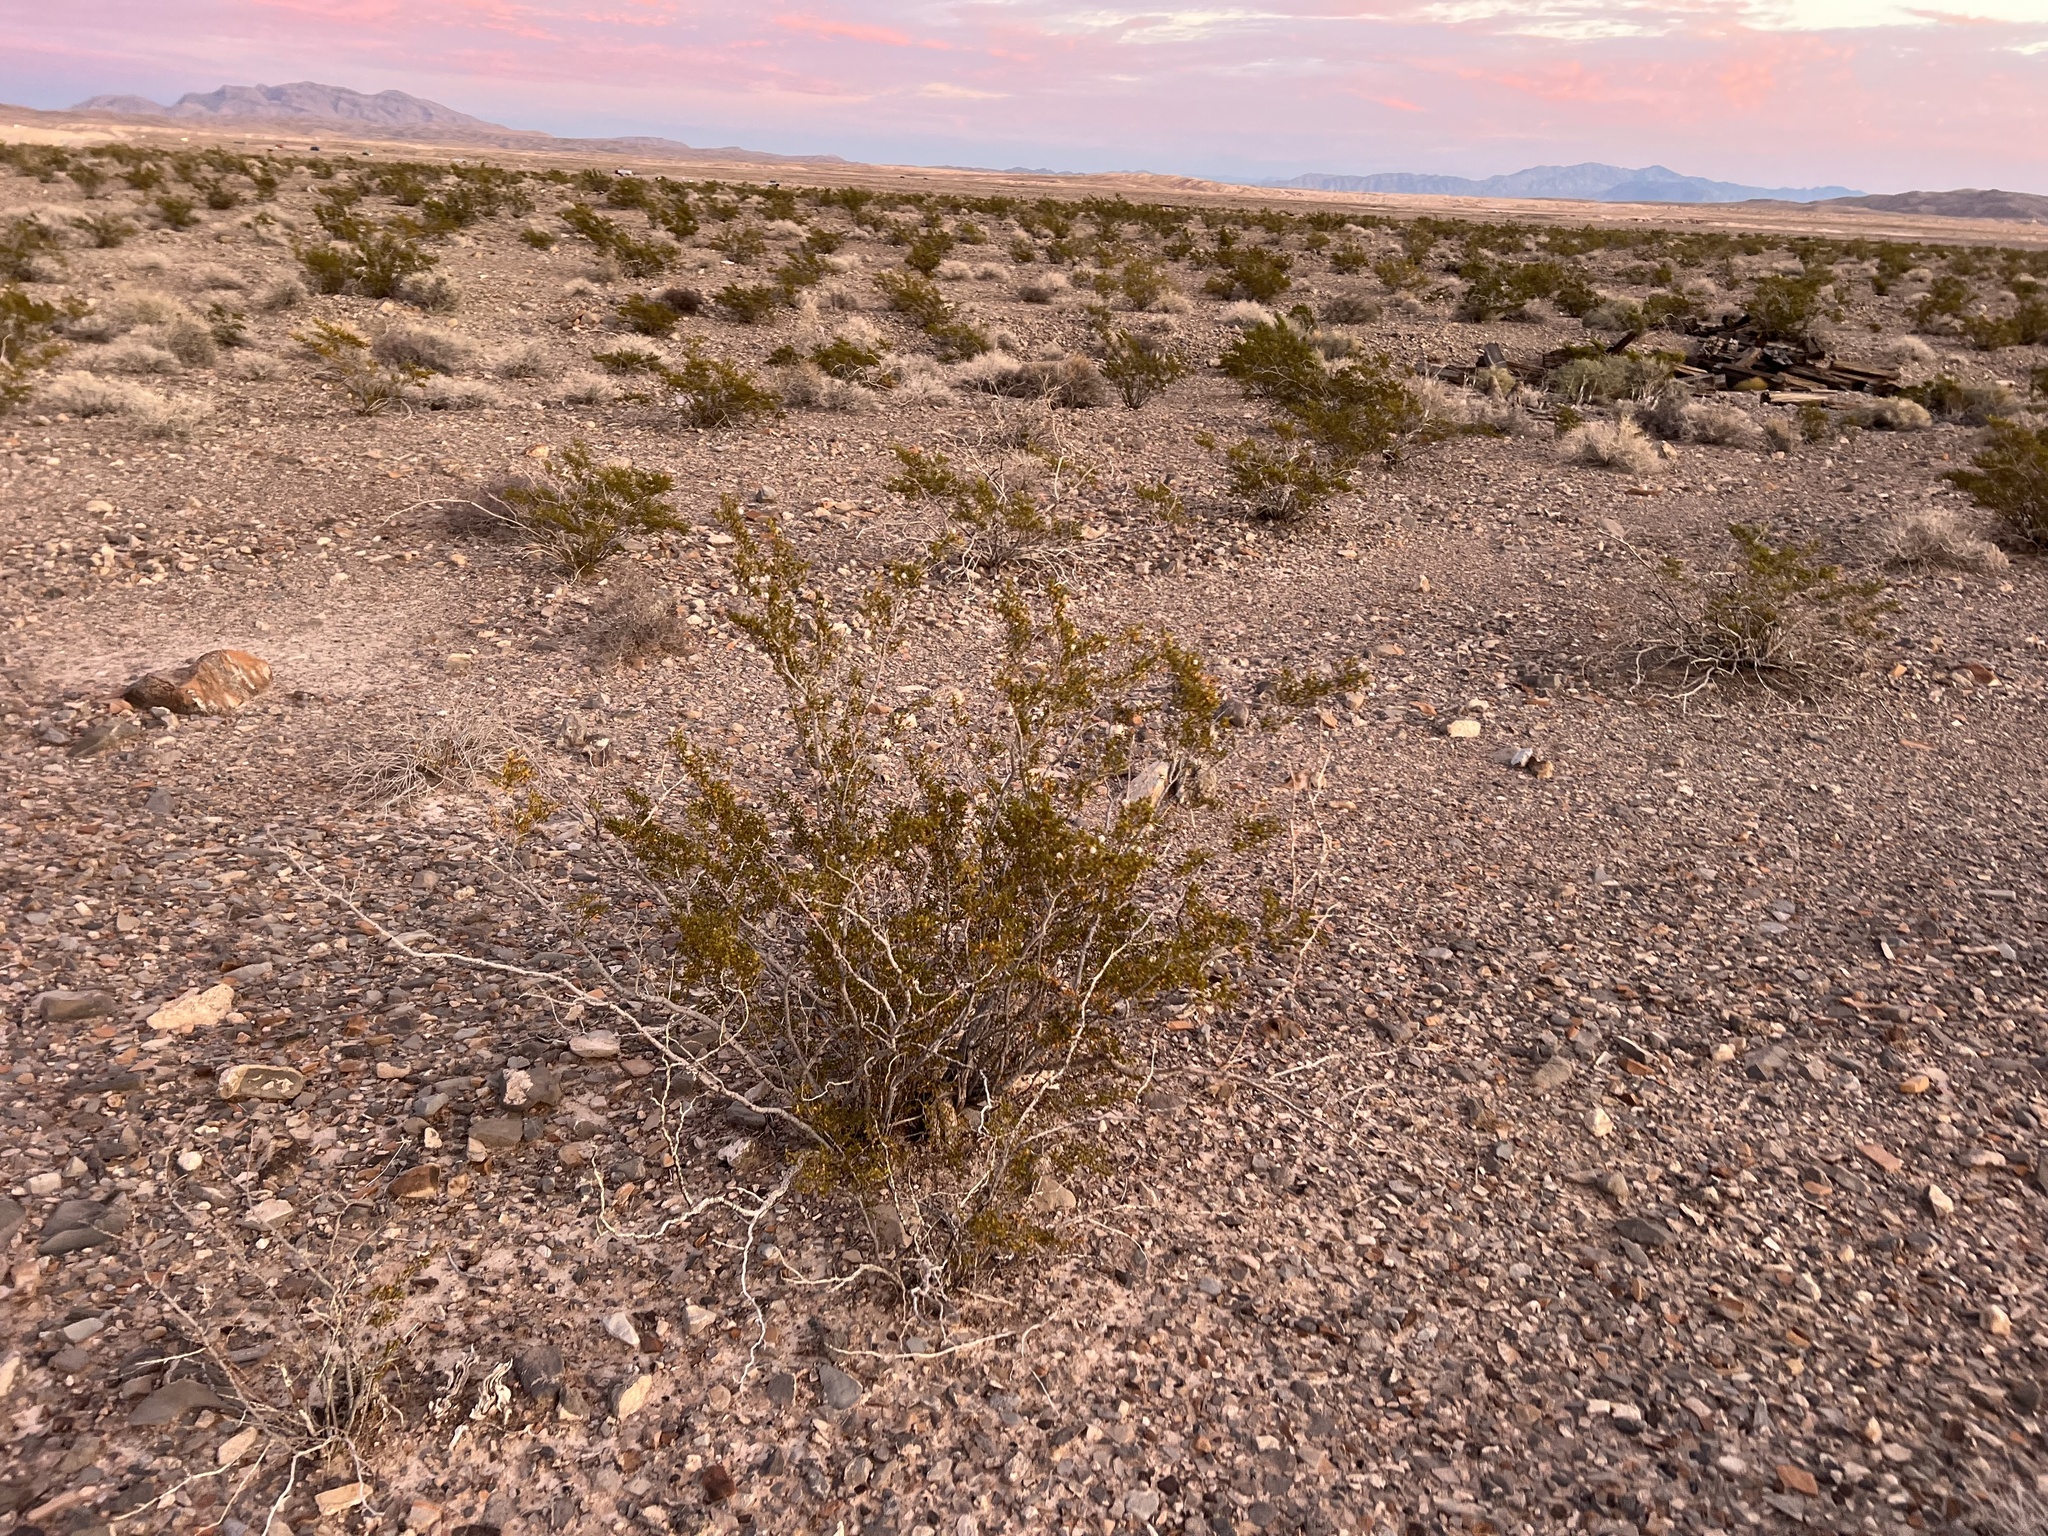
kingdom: Plantae
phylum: Tracheophyta
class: Magnoliopsida
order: Zygophyllales
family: Zygophyllaceae
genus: Larrea
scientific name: Larrea tridentata
